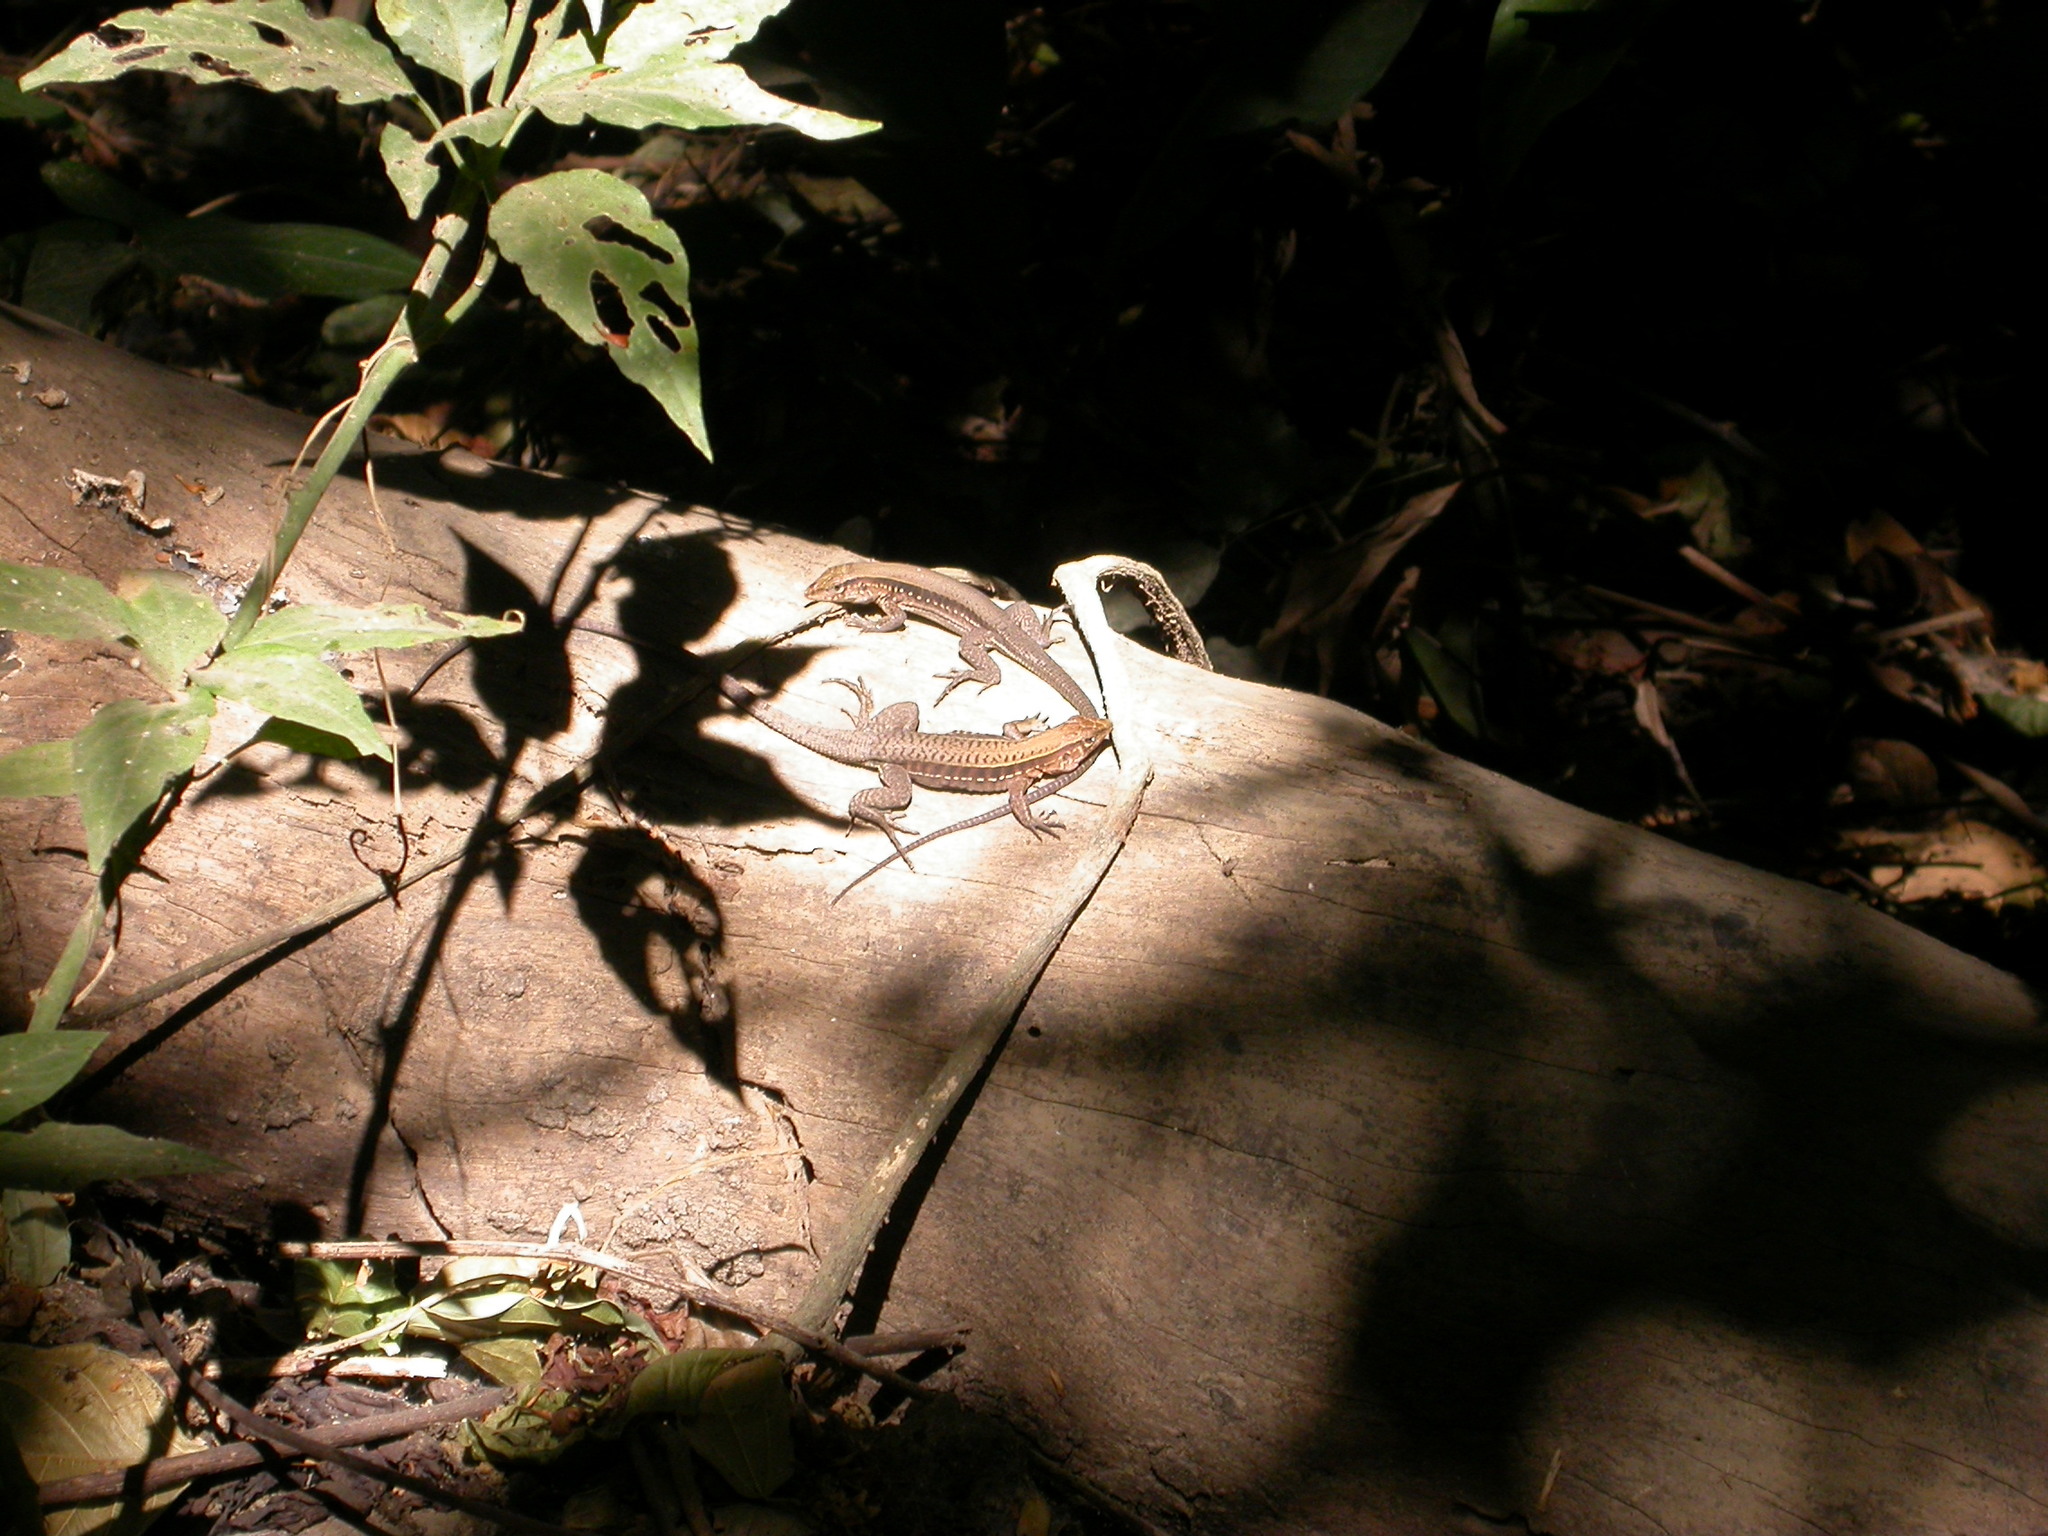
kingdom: Animalia
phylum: Chordata
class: Squamata
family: Teiidae
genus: Holcosus
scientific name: Holcosus quadrilineatus
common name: Four-lined ameiva
